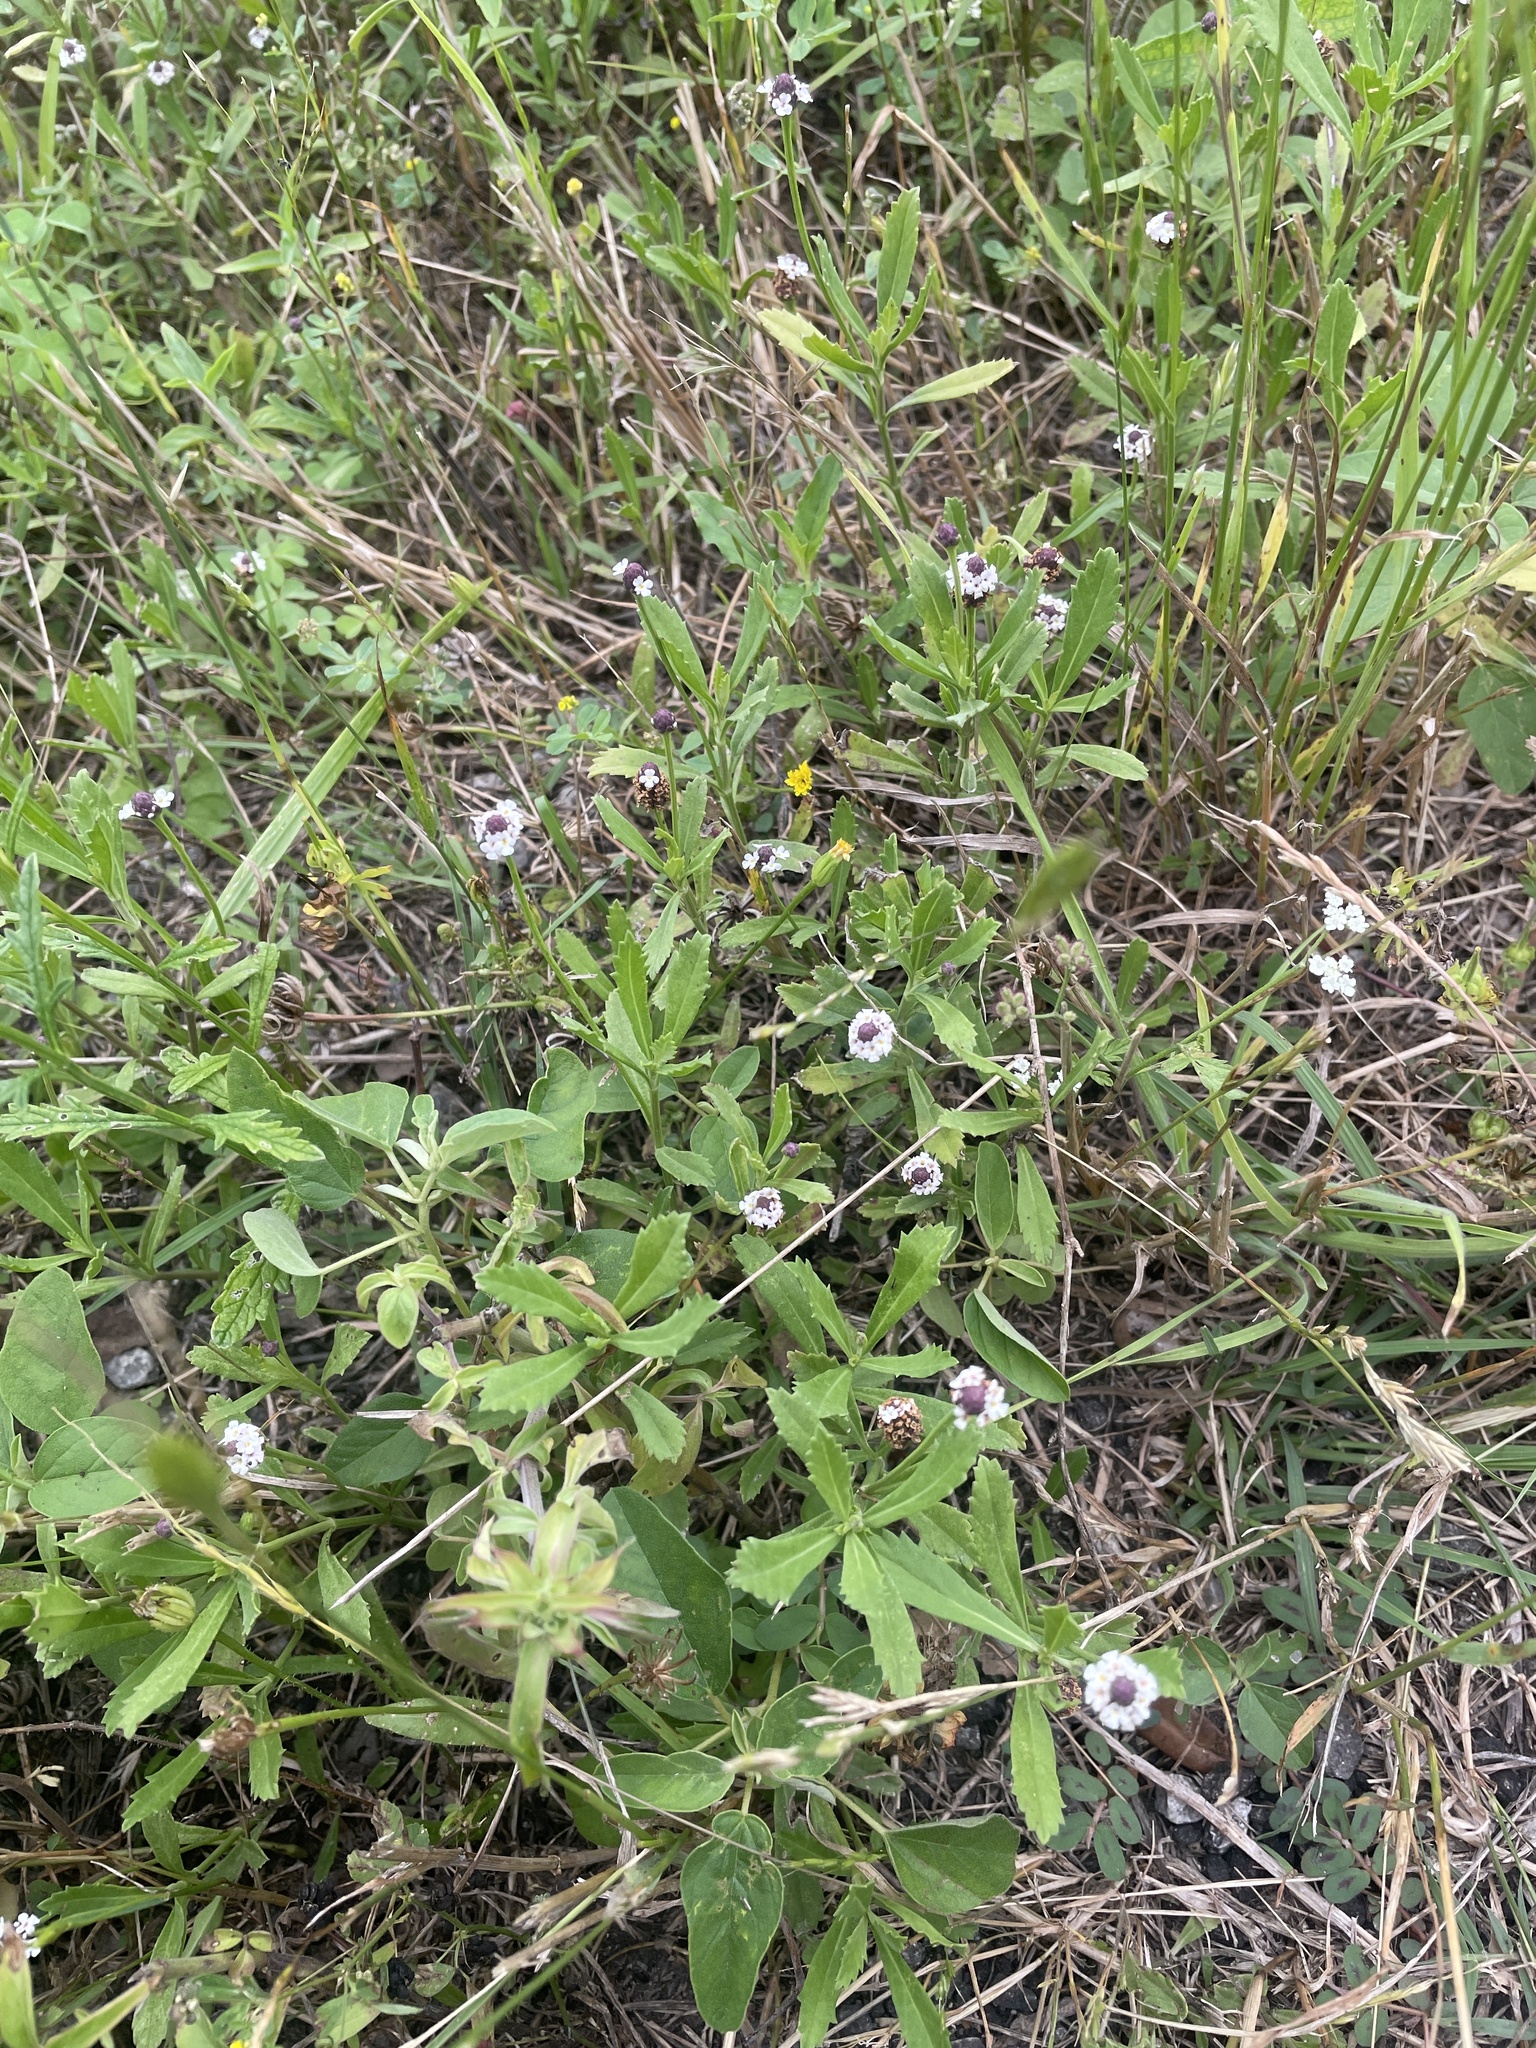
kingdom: Plantae
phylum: Tracheophyta
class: Magnoliopsida
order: Lamiales
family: Verbenaceae
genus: Phyla
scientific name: Phyla nodiflora
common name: Frogfruit
